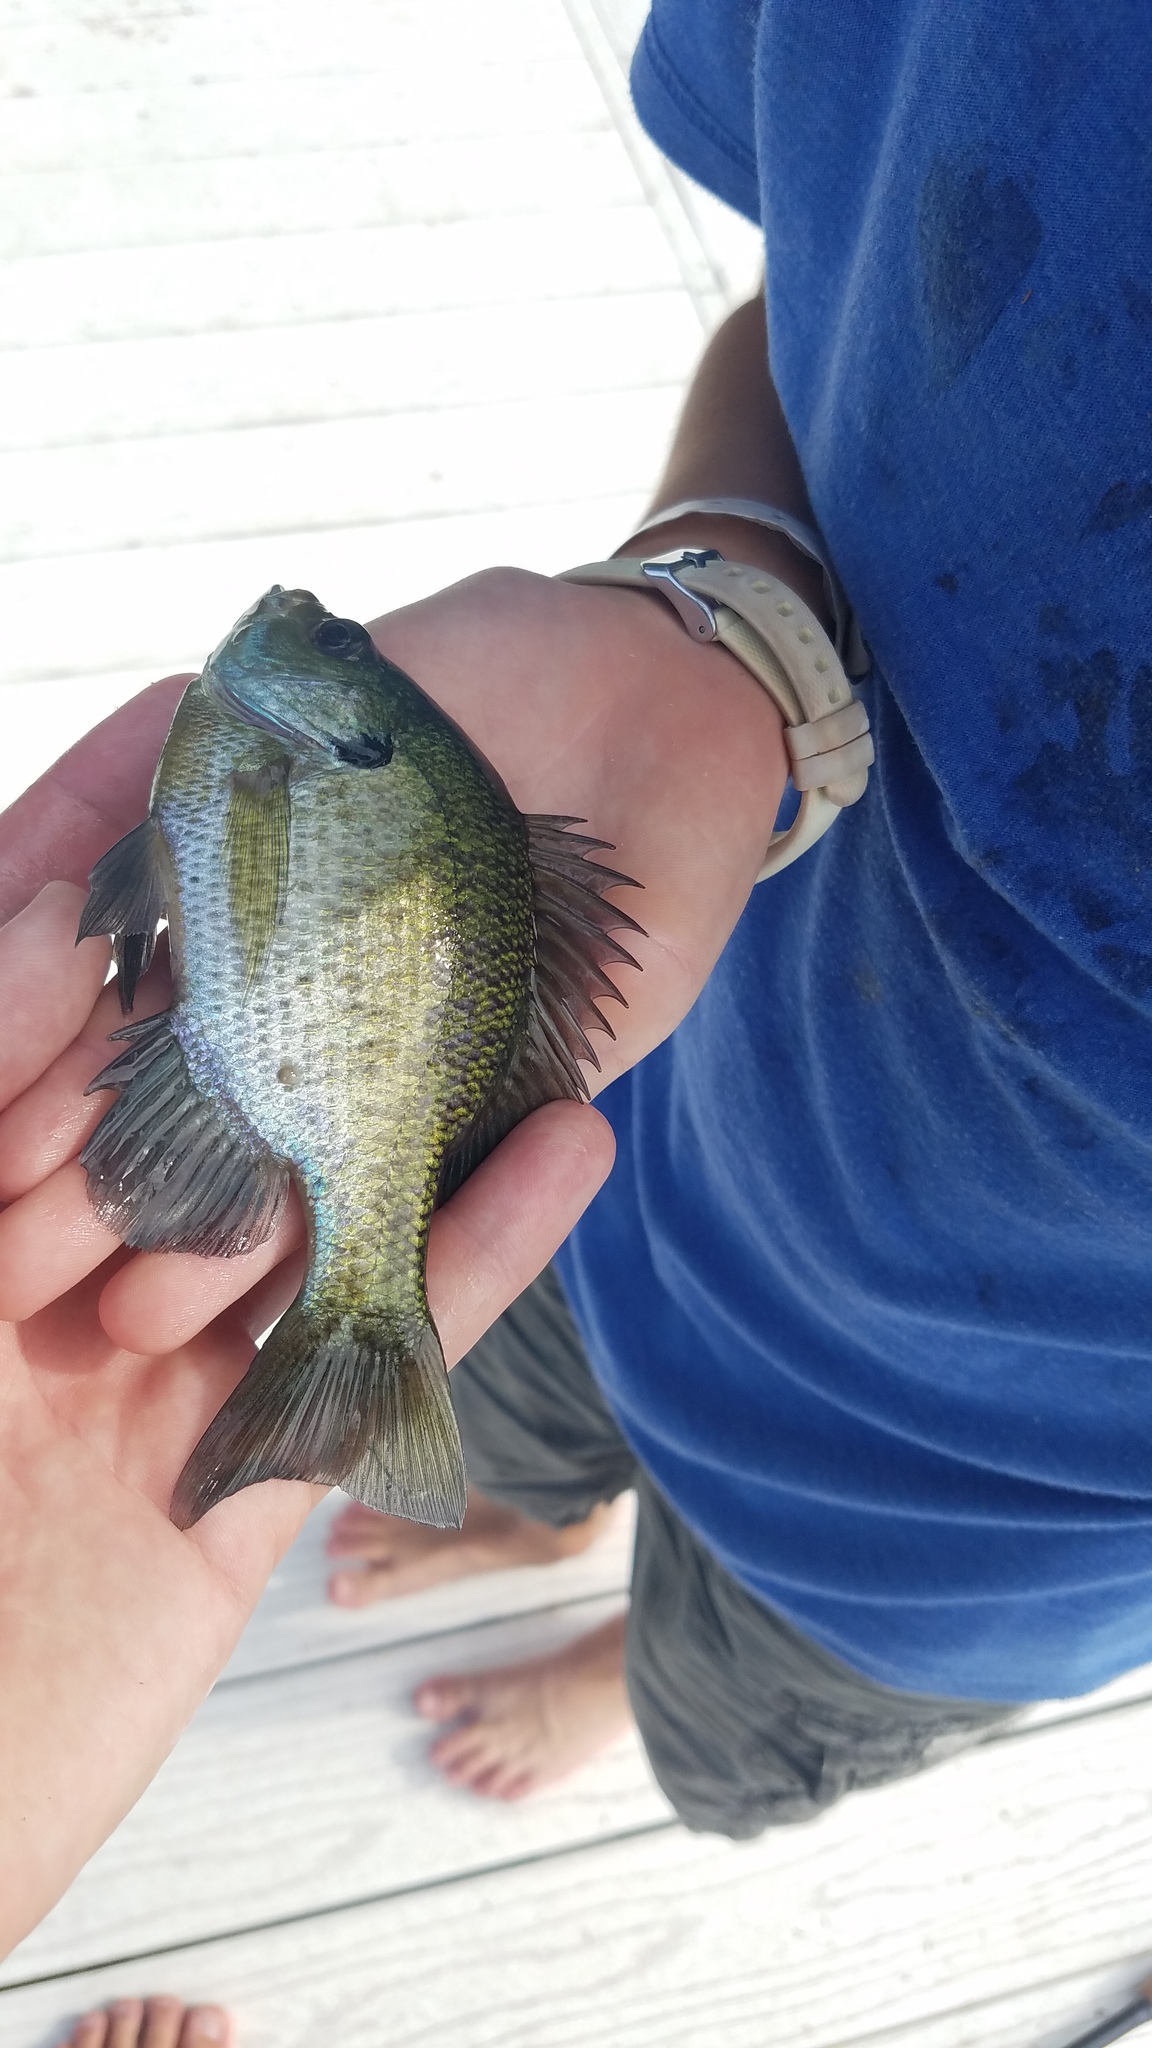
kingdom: Animalia
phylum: Chordata
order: Perciformes
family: Centrarchidae
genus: Lepomis
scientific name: Lepomis macrochirus
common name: Bluegill
